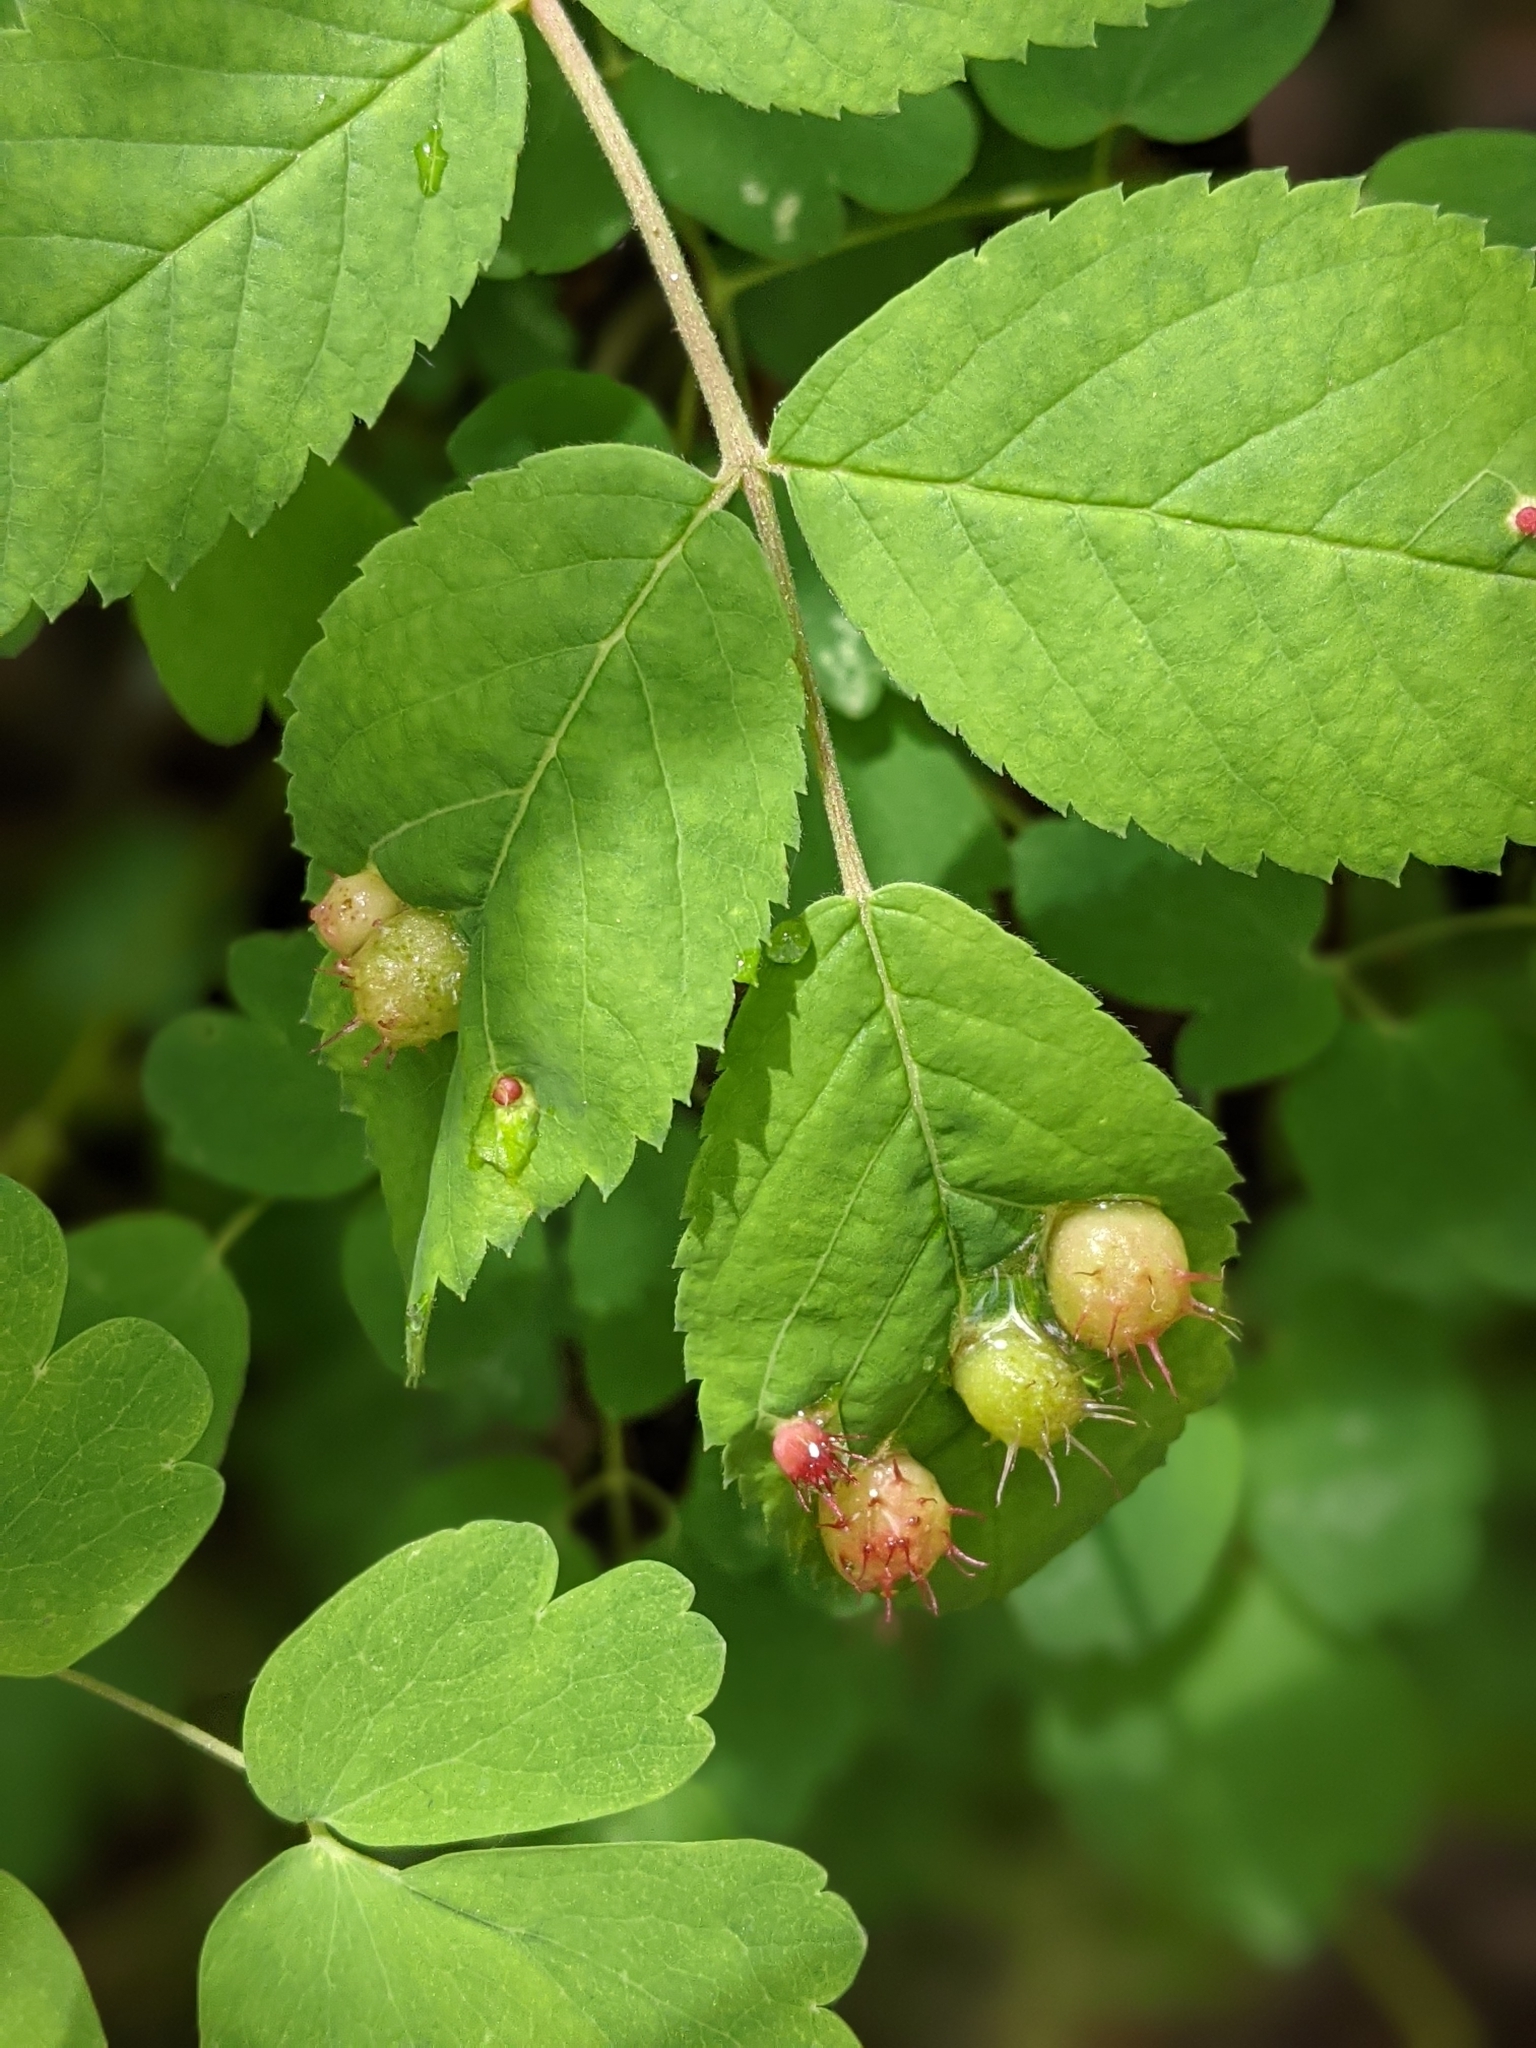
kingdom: Animalia
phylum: Arthropoda
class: Insecta
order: Hymenoptera
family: Cynipidae
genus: Diplolepis
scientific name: Diplolepis polita
